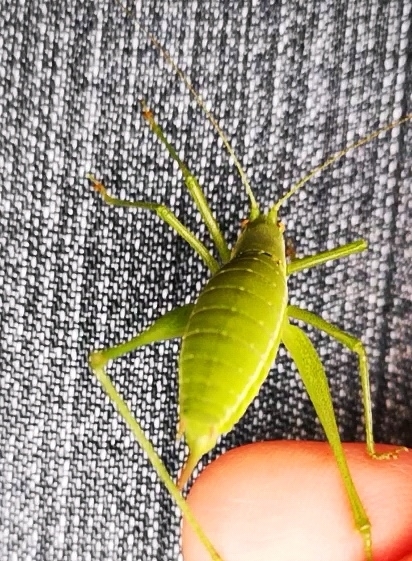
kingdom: Animalia
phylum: Arthropoda
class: Insecta
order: Orthoptera
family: Tettigoniidae
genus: Leptophyes
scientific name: Leptophyes boscii
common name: Balkan speckled bush-cricket
